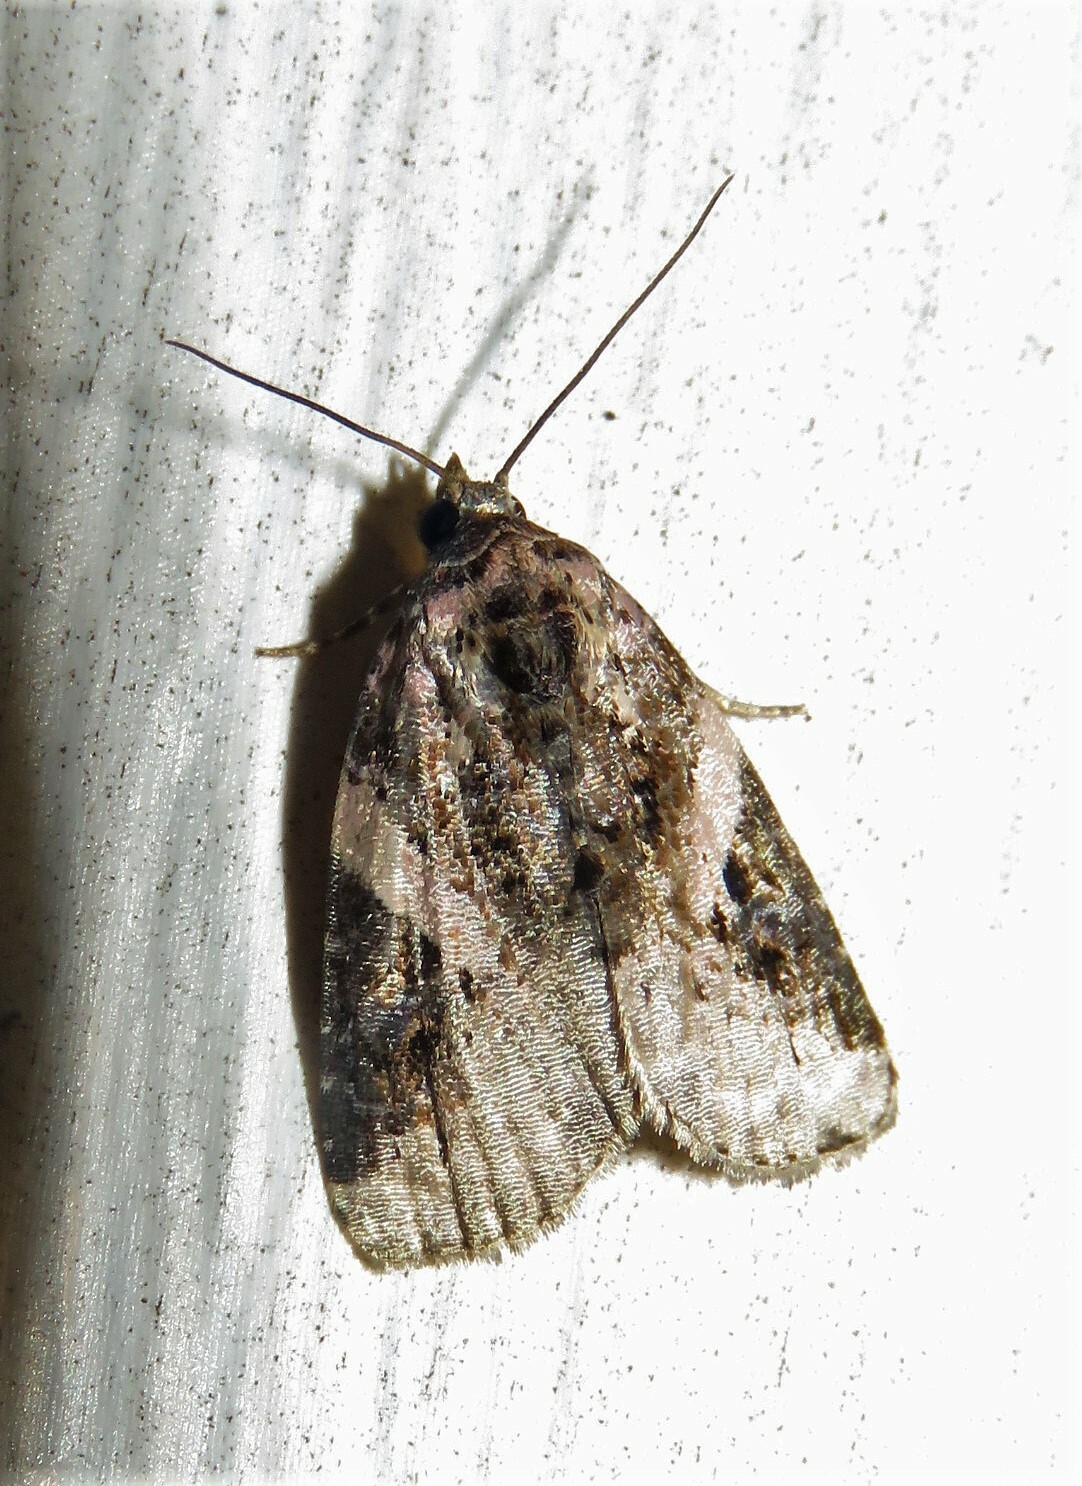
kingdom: Animalia
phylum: Arthropoda
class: Insecta
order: Lepidoptera
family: Noctuidae
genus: Pseudeustrotia
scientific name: Pseudeustrotia carneola
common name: Pink-barred lithacodia moth
